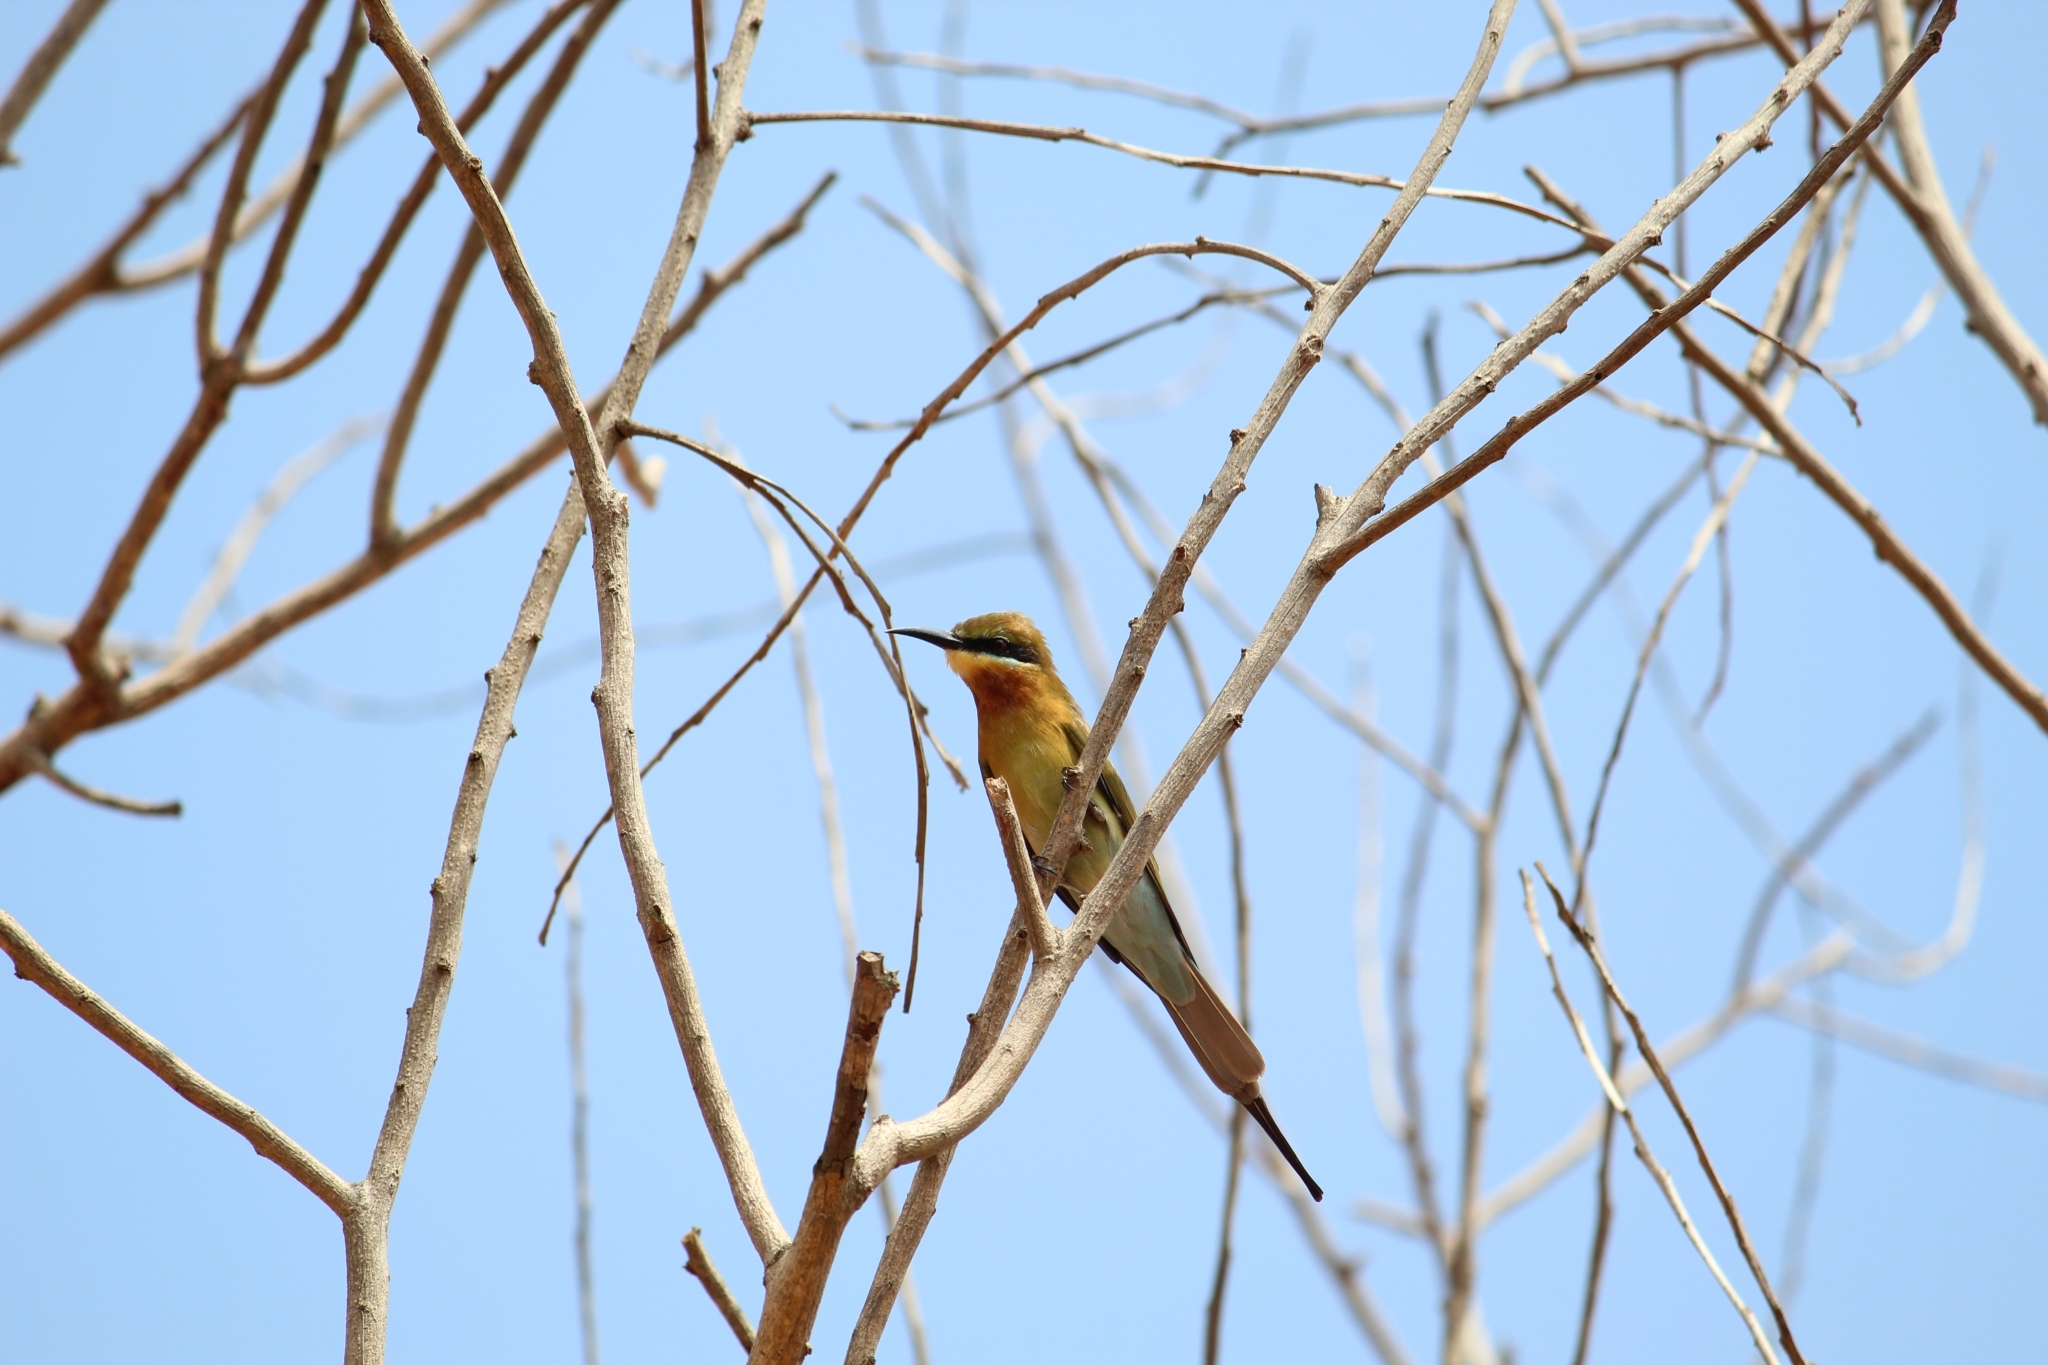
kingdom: Animalia
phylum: Chordata
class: Aves
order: Coraciiformes
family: Meropidae
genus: Merops
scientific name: Merops philippinus
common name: Blue-tailed bee-eater
